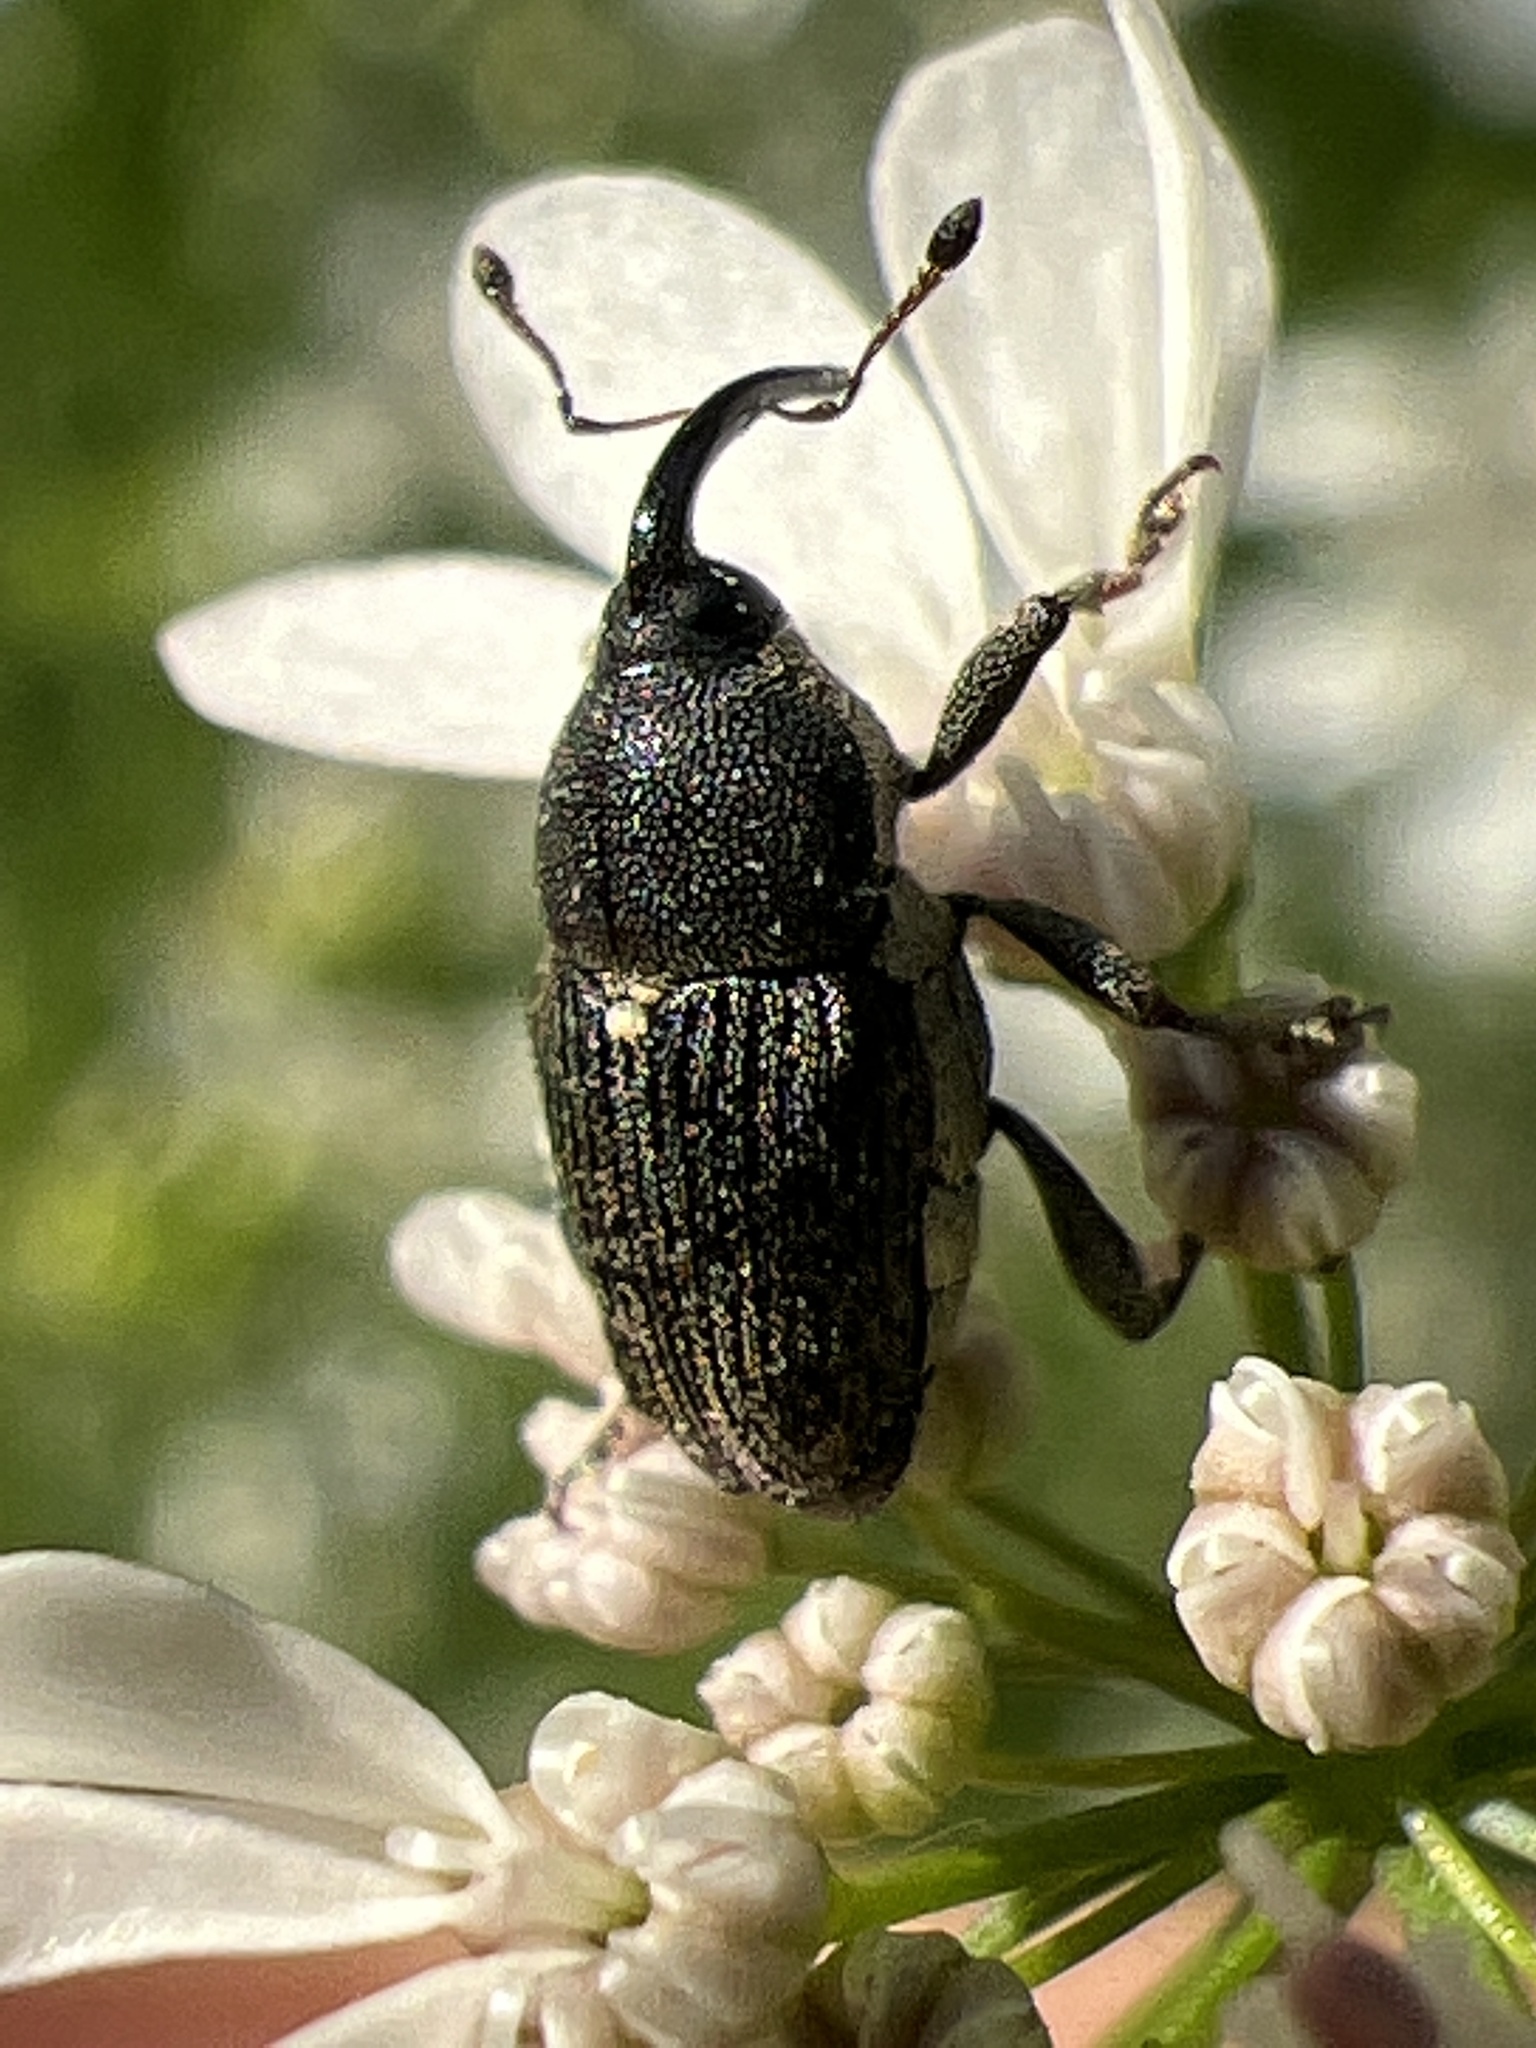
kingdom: Animalia
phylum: Arthropoda
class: Insecta
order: Coleoptera
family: Curculionidae
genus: Odontocorynus
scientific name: Odontocorynus salebrosus
